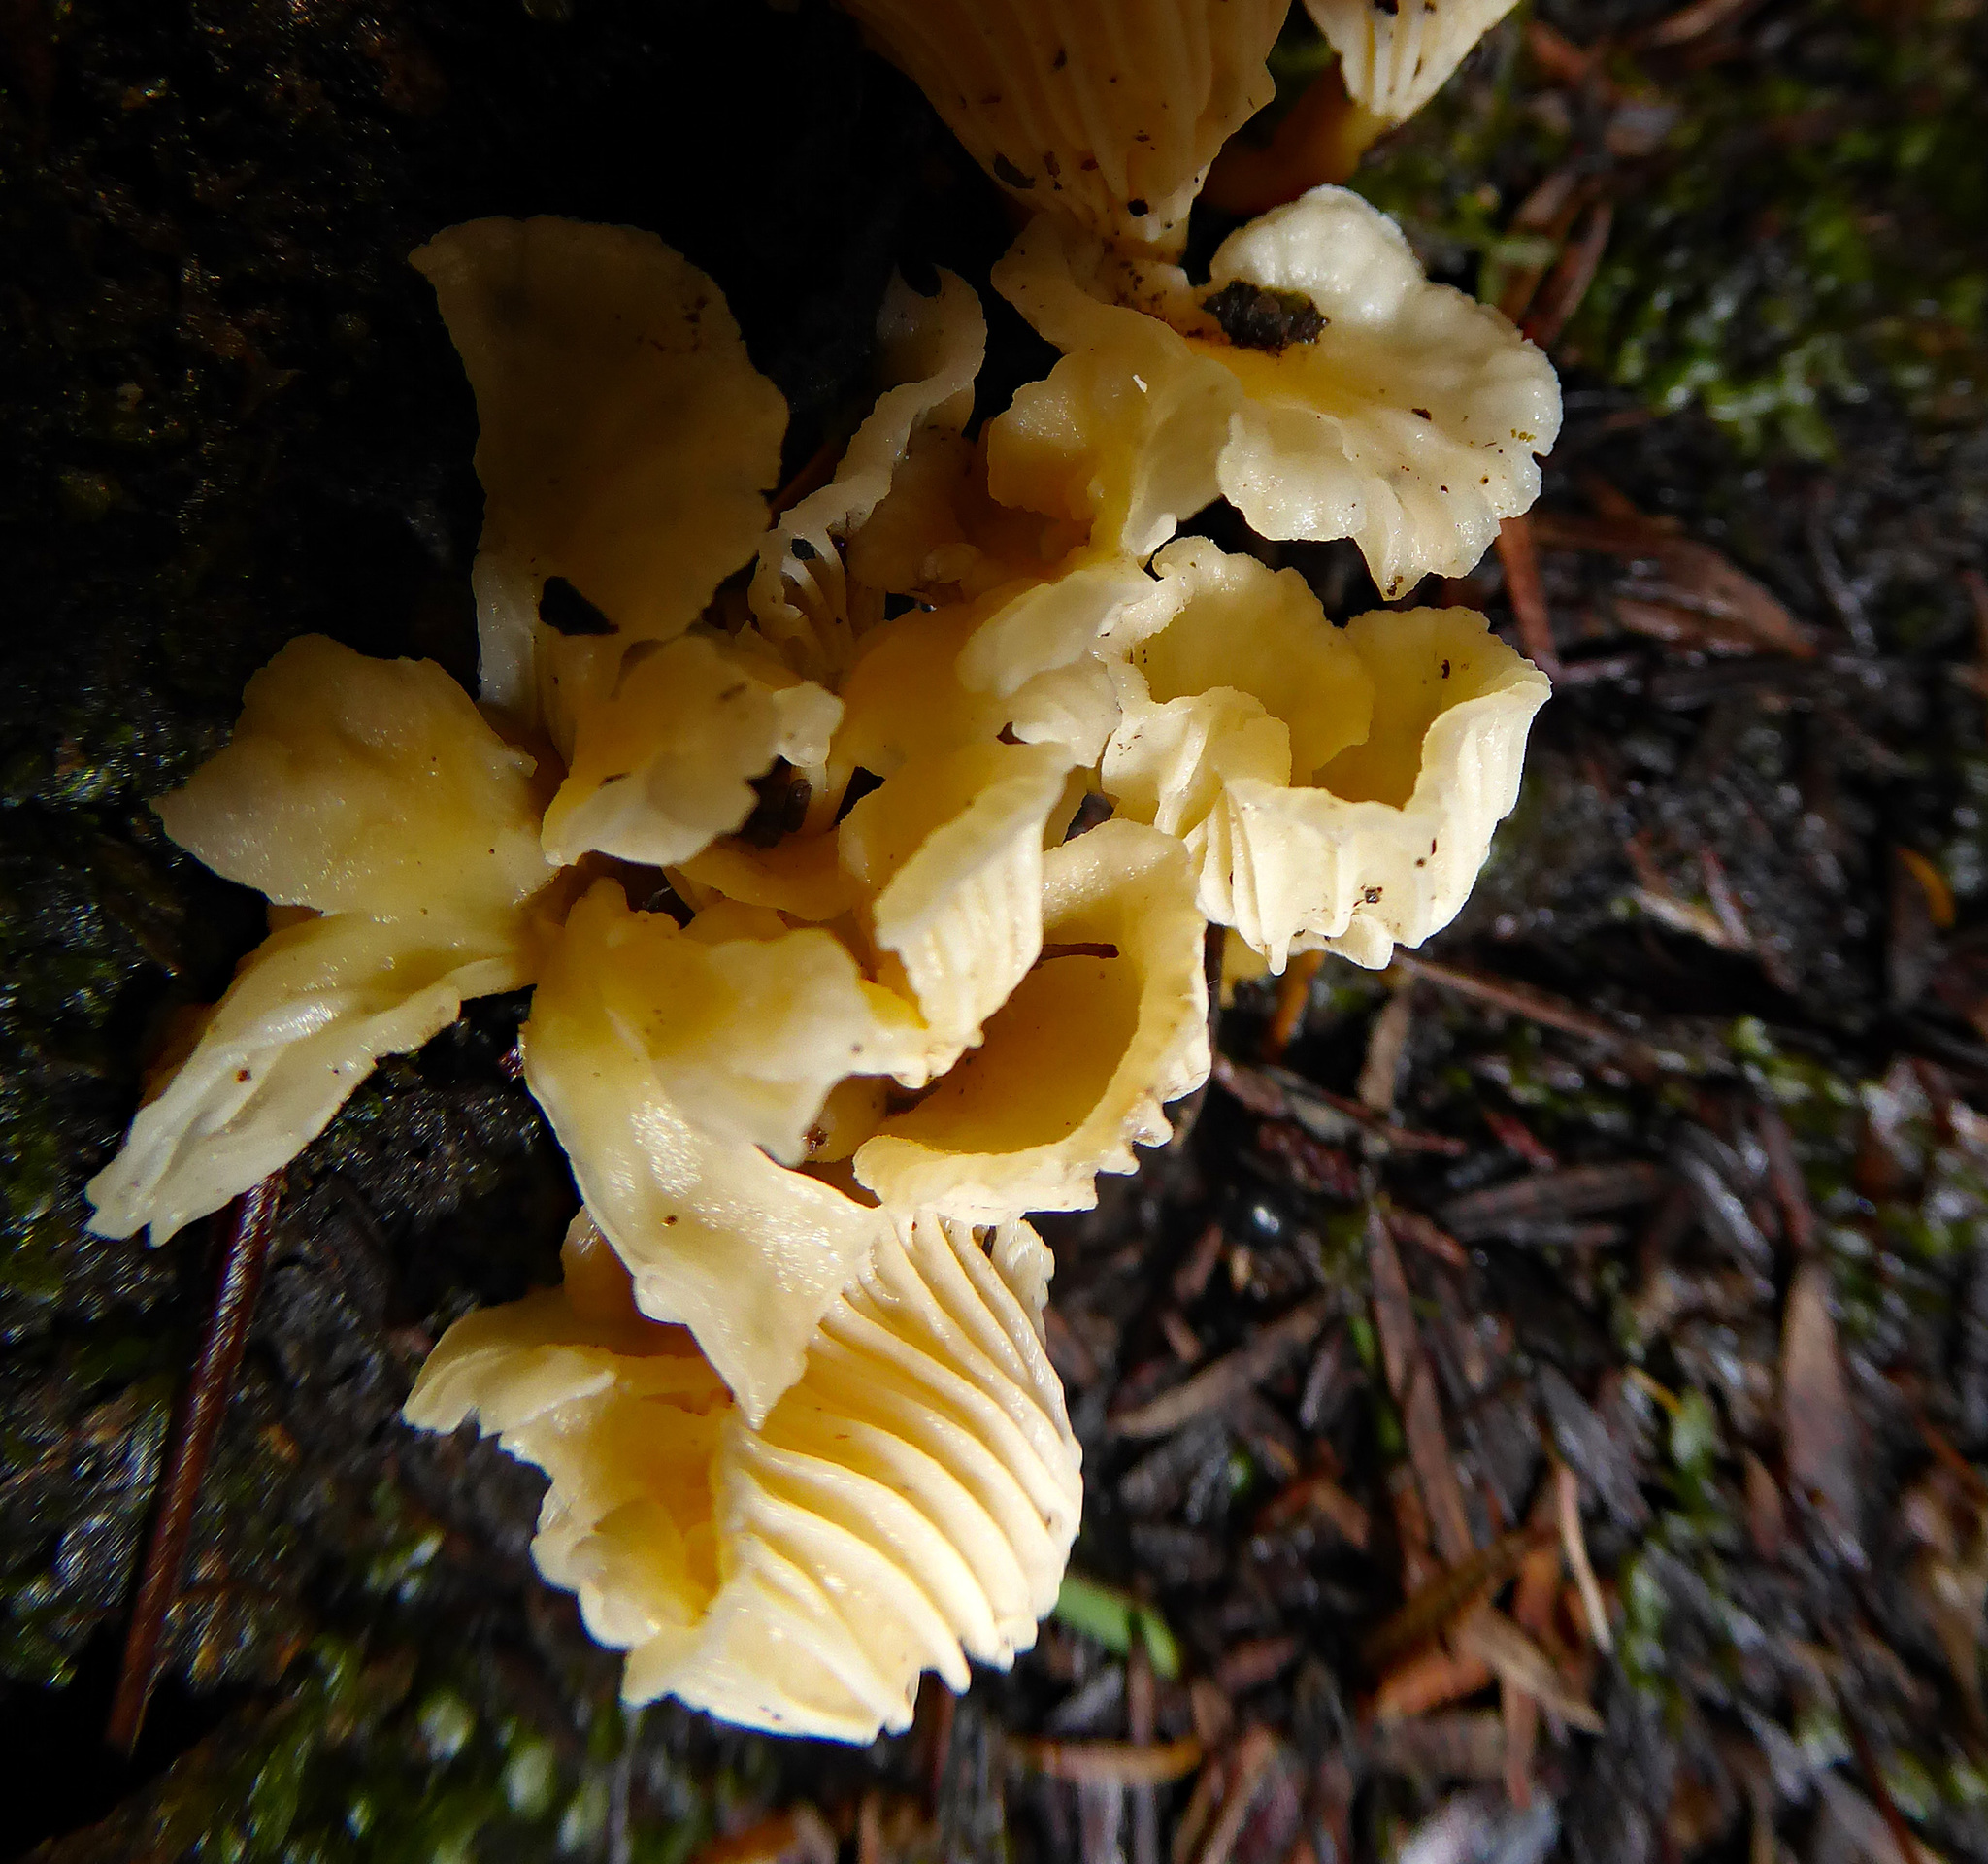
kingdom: Fungi
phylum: Basidiomycota
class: Agaricomycetes
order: Cantharellales
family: Hydnaceae
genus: Cantharellus
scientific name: Cantharellus wellingtonensis
